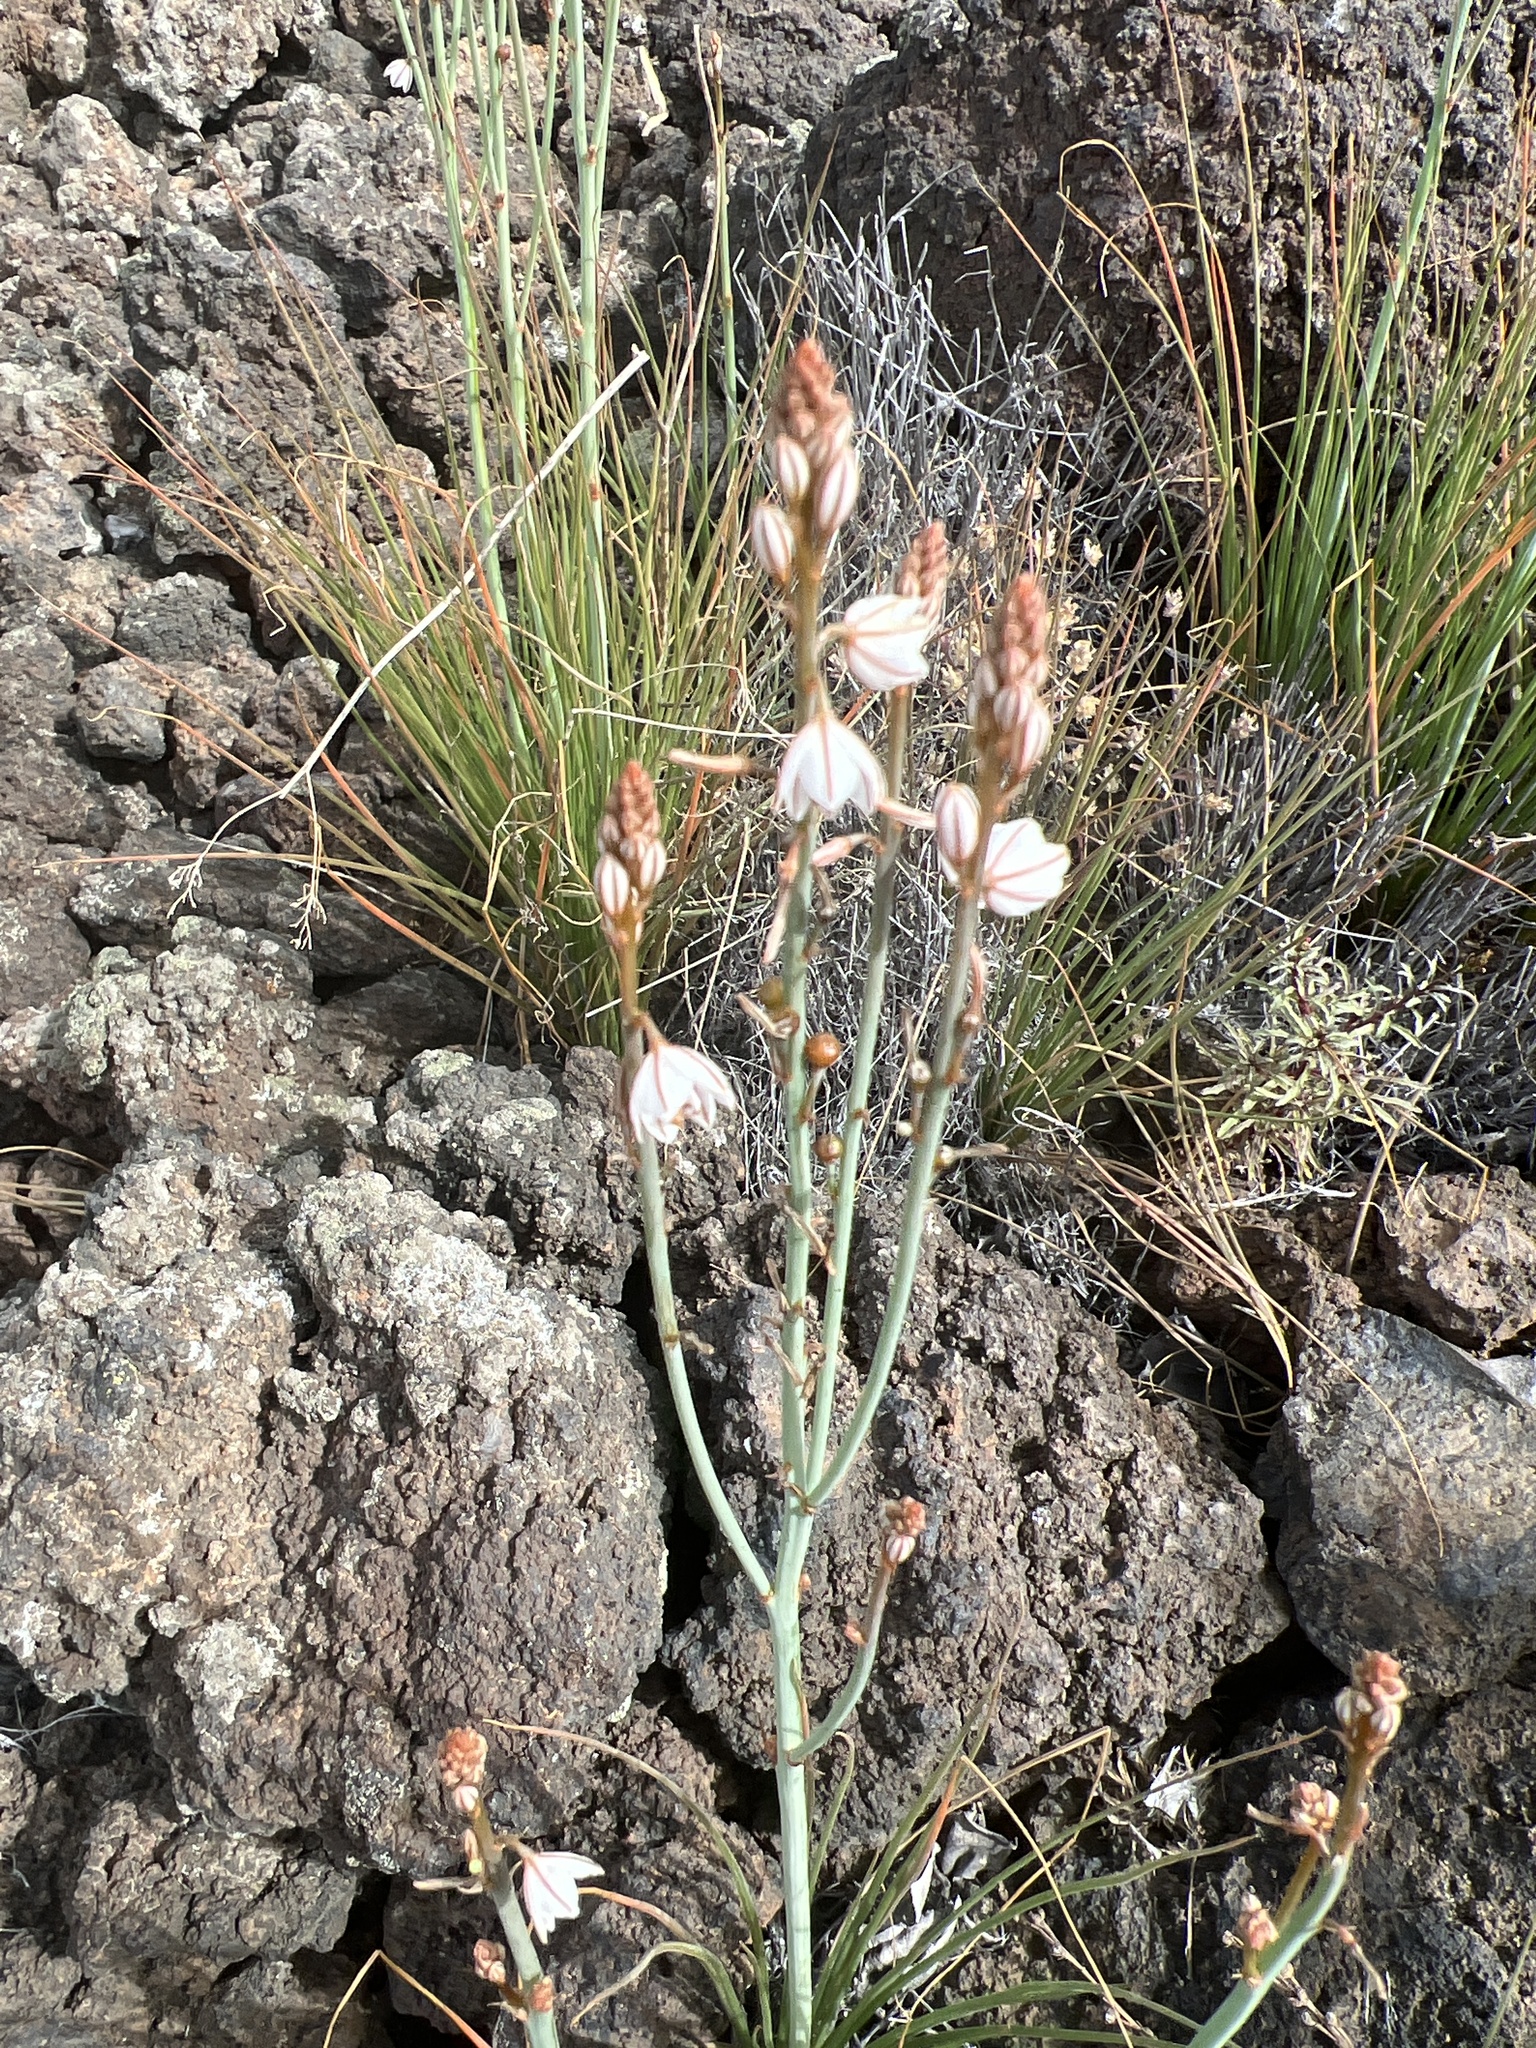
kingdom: Plantae
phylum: Tracheophyta
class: Liliopsida
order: Asparagales
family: Asphodelaceae
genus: Asphodelus
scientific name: Asphodelus tenuifolius
